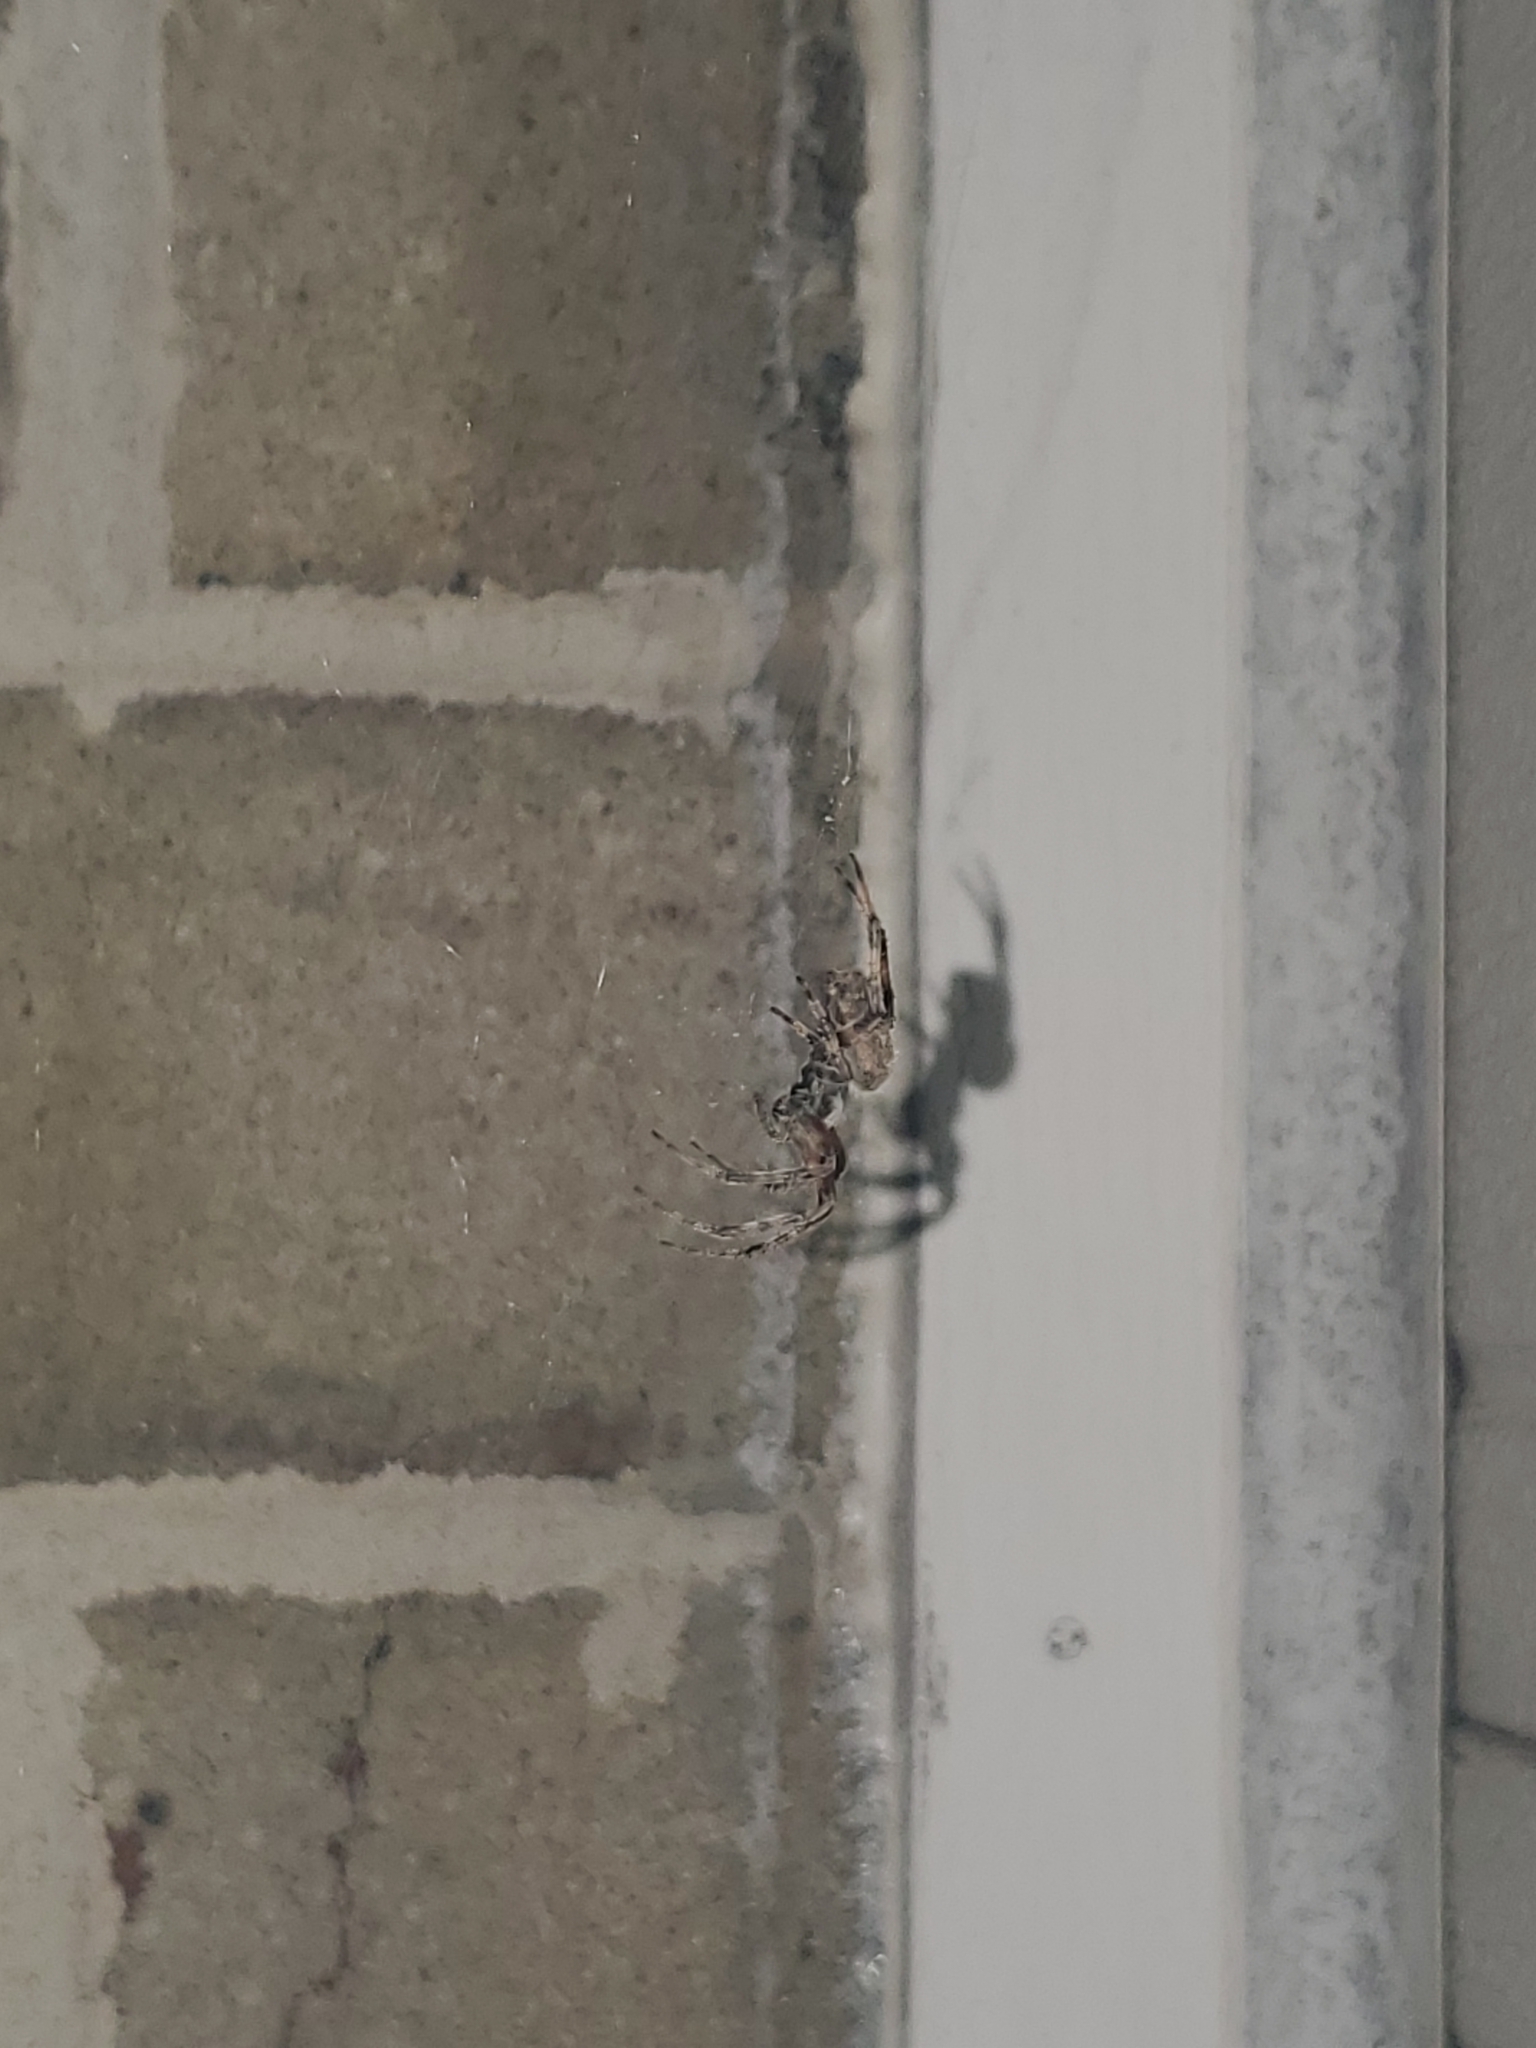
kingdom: Animalia
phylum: Arthropoda
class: Arachnida
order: Araneae
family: Araneidae
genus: Neoscona
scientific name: Neoscona crucifera
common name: Spotted orbweaver
